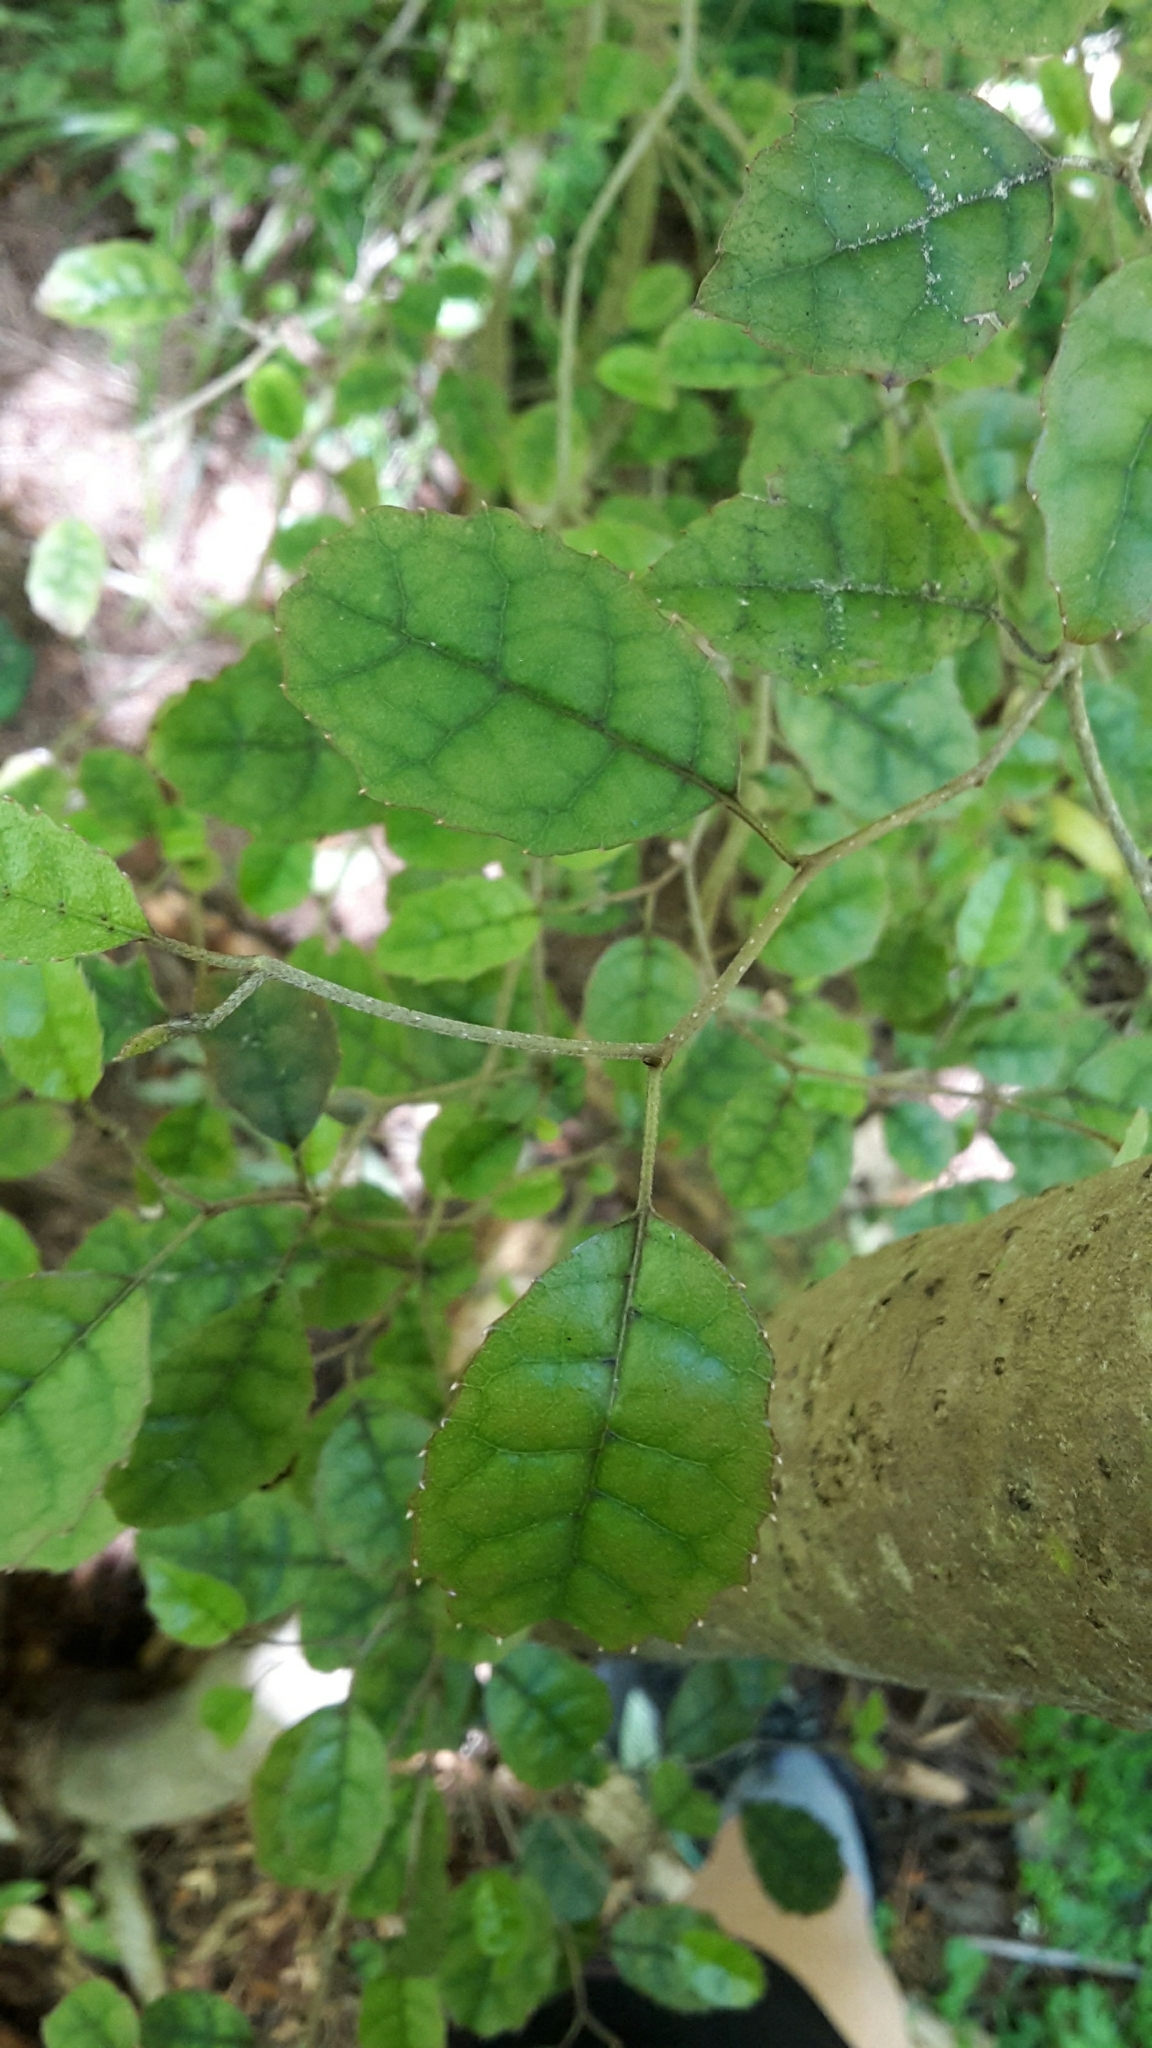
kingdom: Plantae
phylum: Tracheophyta
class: Magnoliopsida
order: Asterales
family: Rousseaceae
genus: Carpodetus
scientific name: Carpodetus serratus
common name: White mapau
